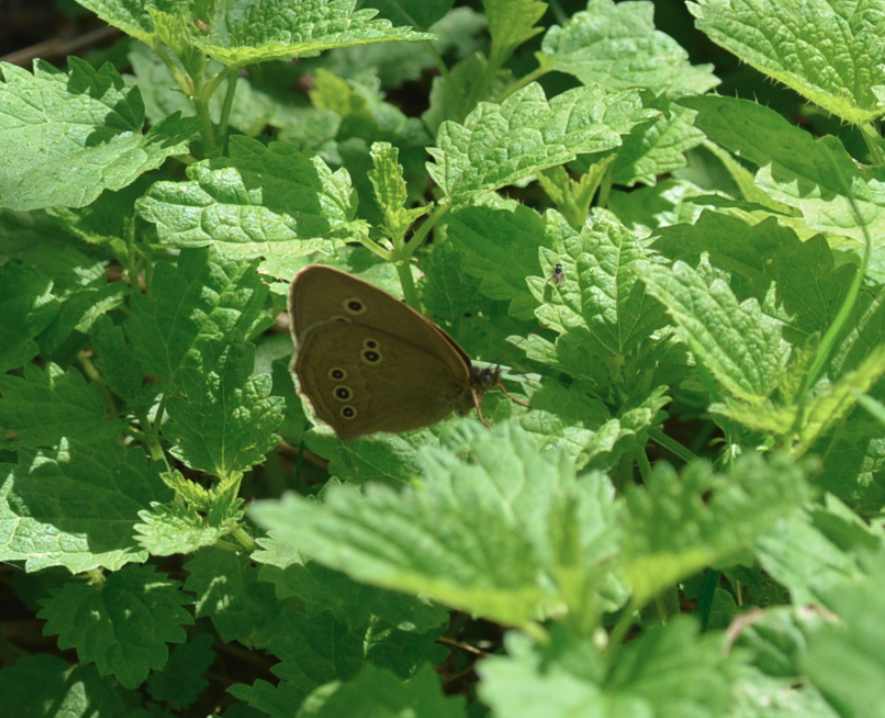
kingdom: Animalia
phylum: Arthropoda
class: Insecta
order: Lepidoptera
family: Nymphalidae
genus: Aphantopus
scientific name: Aphantopus hyperantus
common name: Ringlet
